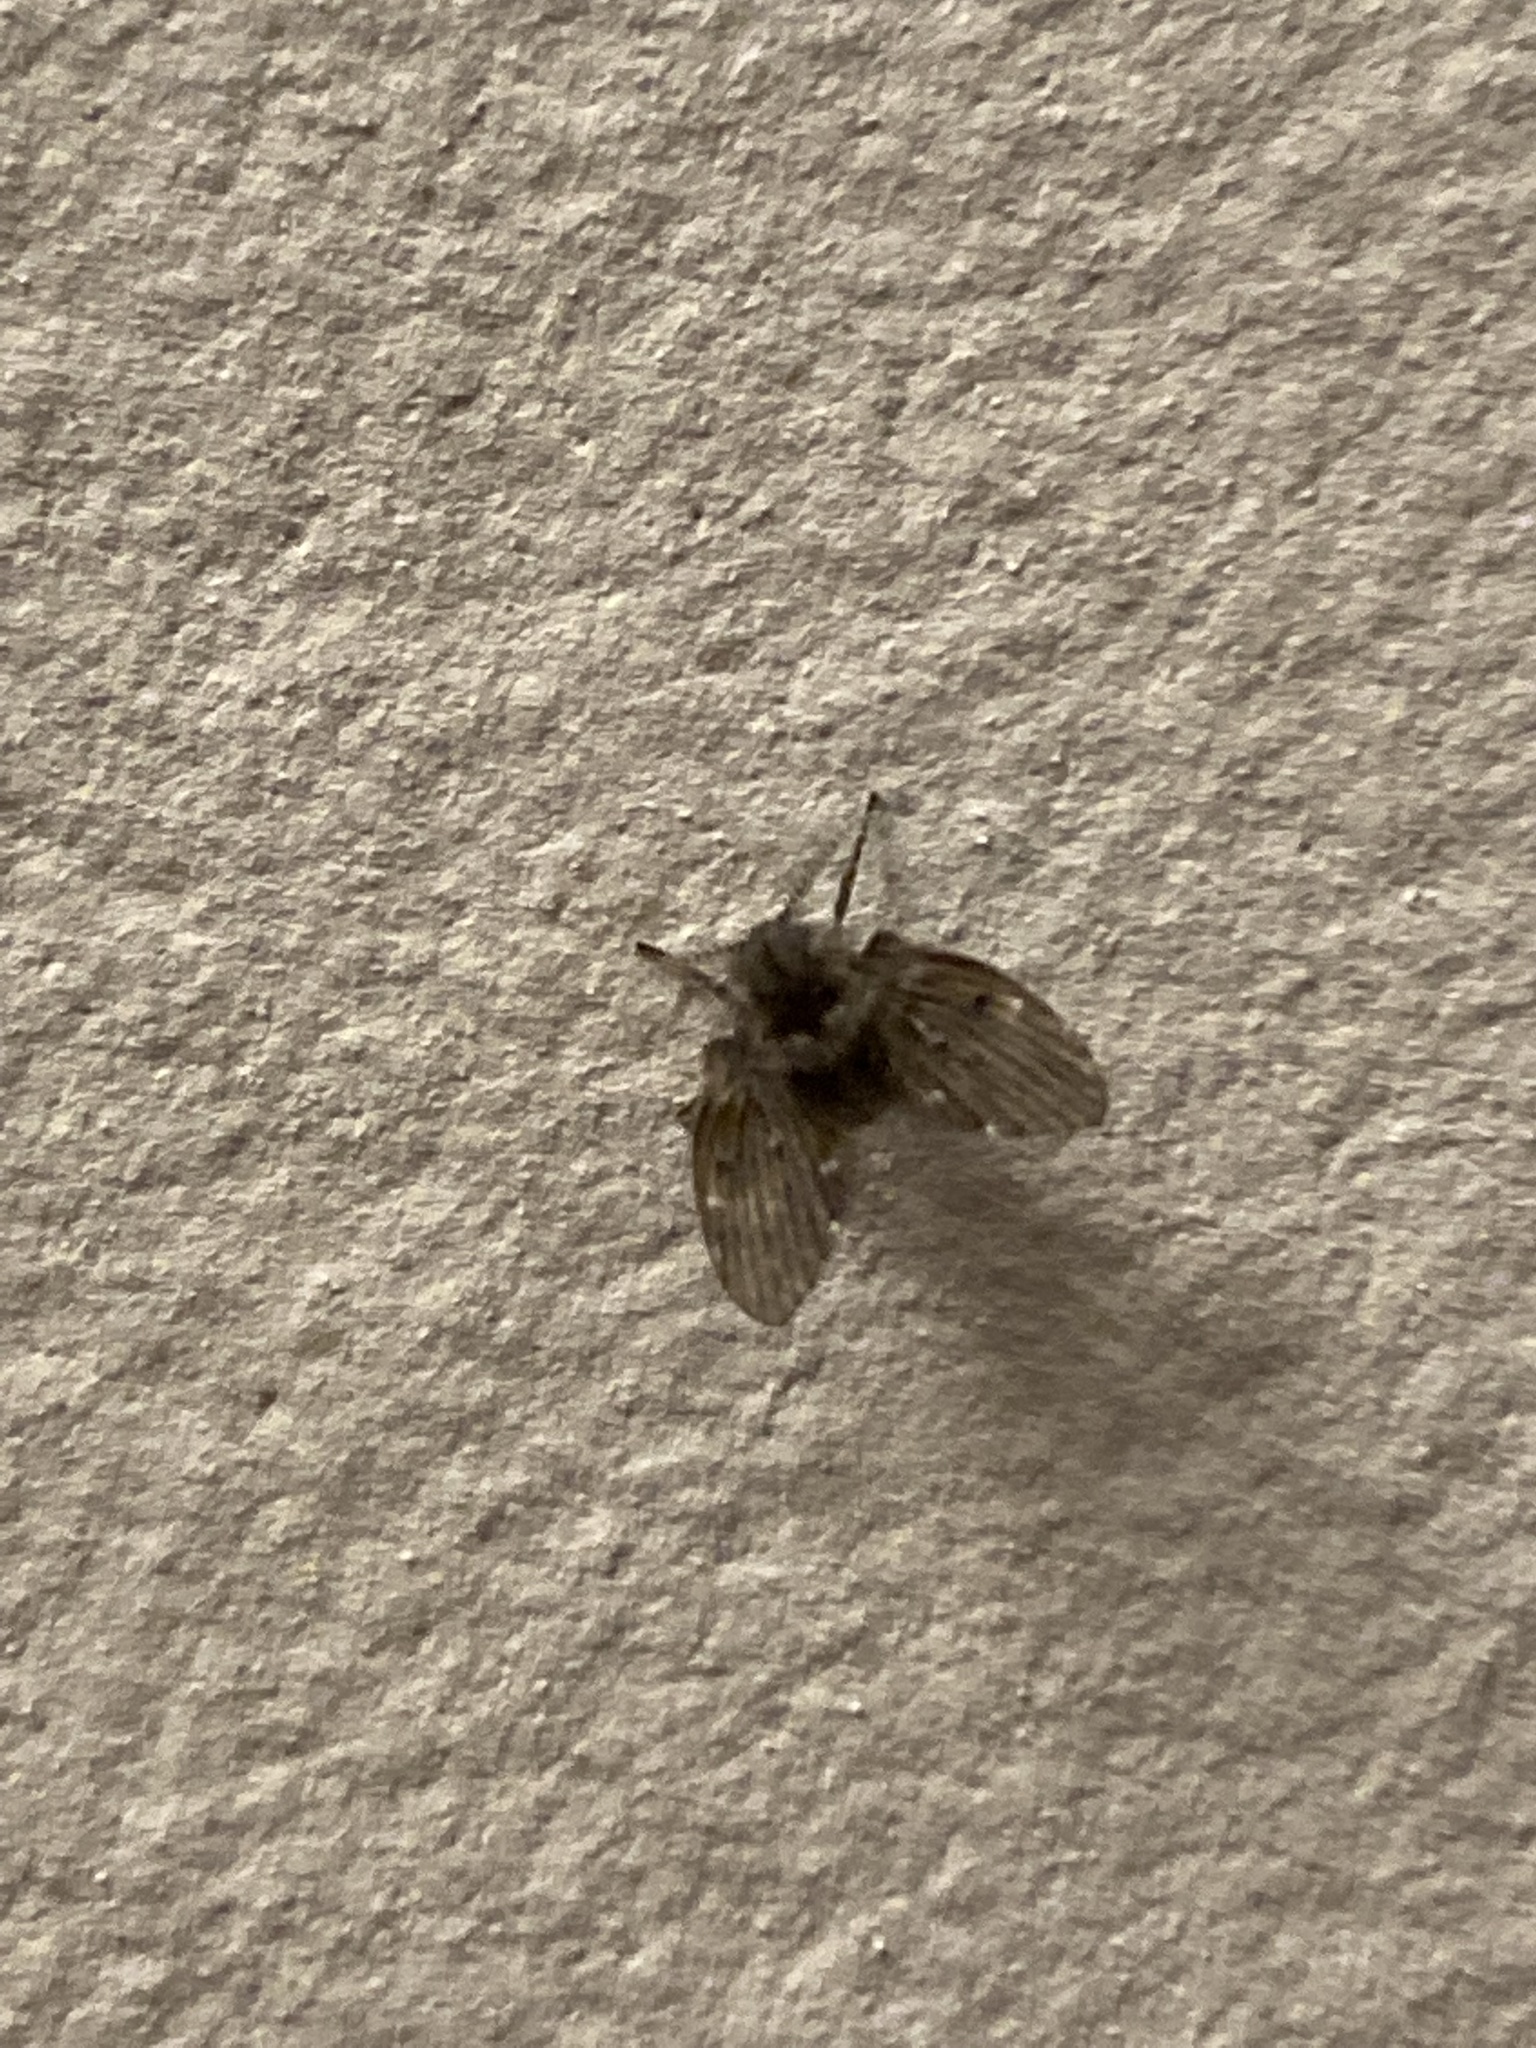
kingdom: Animalia
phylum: Arthropoda
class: Insecta
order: Diptera
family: Psychodidae
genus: Clogmia
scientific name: Clogmia albipunctatus
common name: White-spotted moth fly
